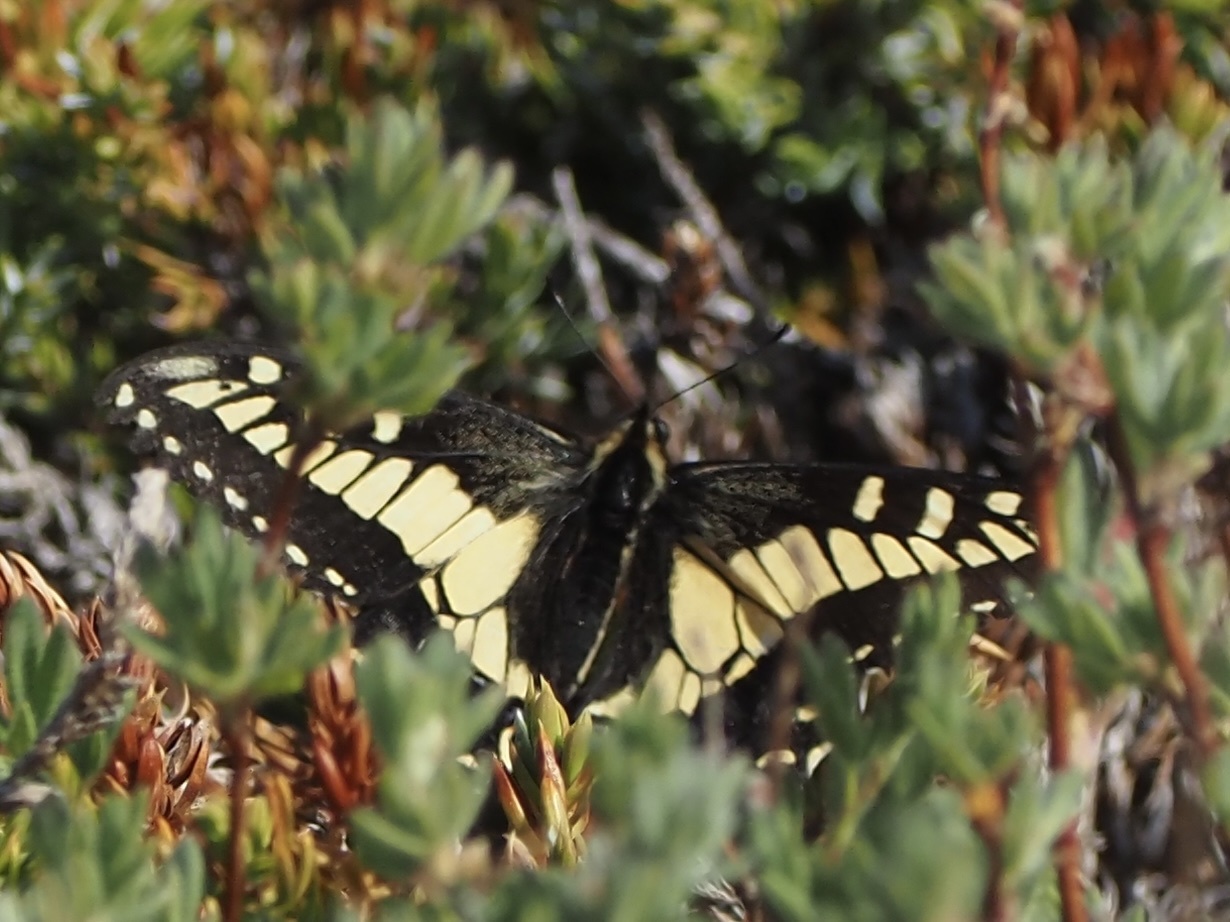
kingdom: Animalia
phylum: Arthropoda
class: Insecta
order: Lepidoptera
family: Papilionidae
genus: Papilio
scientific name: Papilio zelicaon
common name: Anise swallowtail
